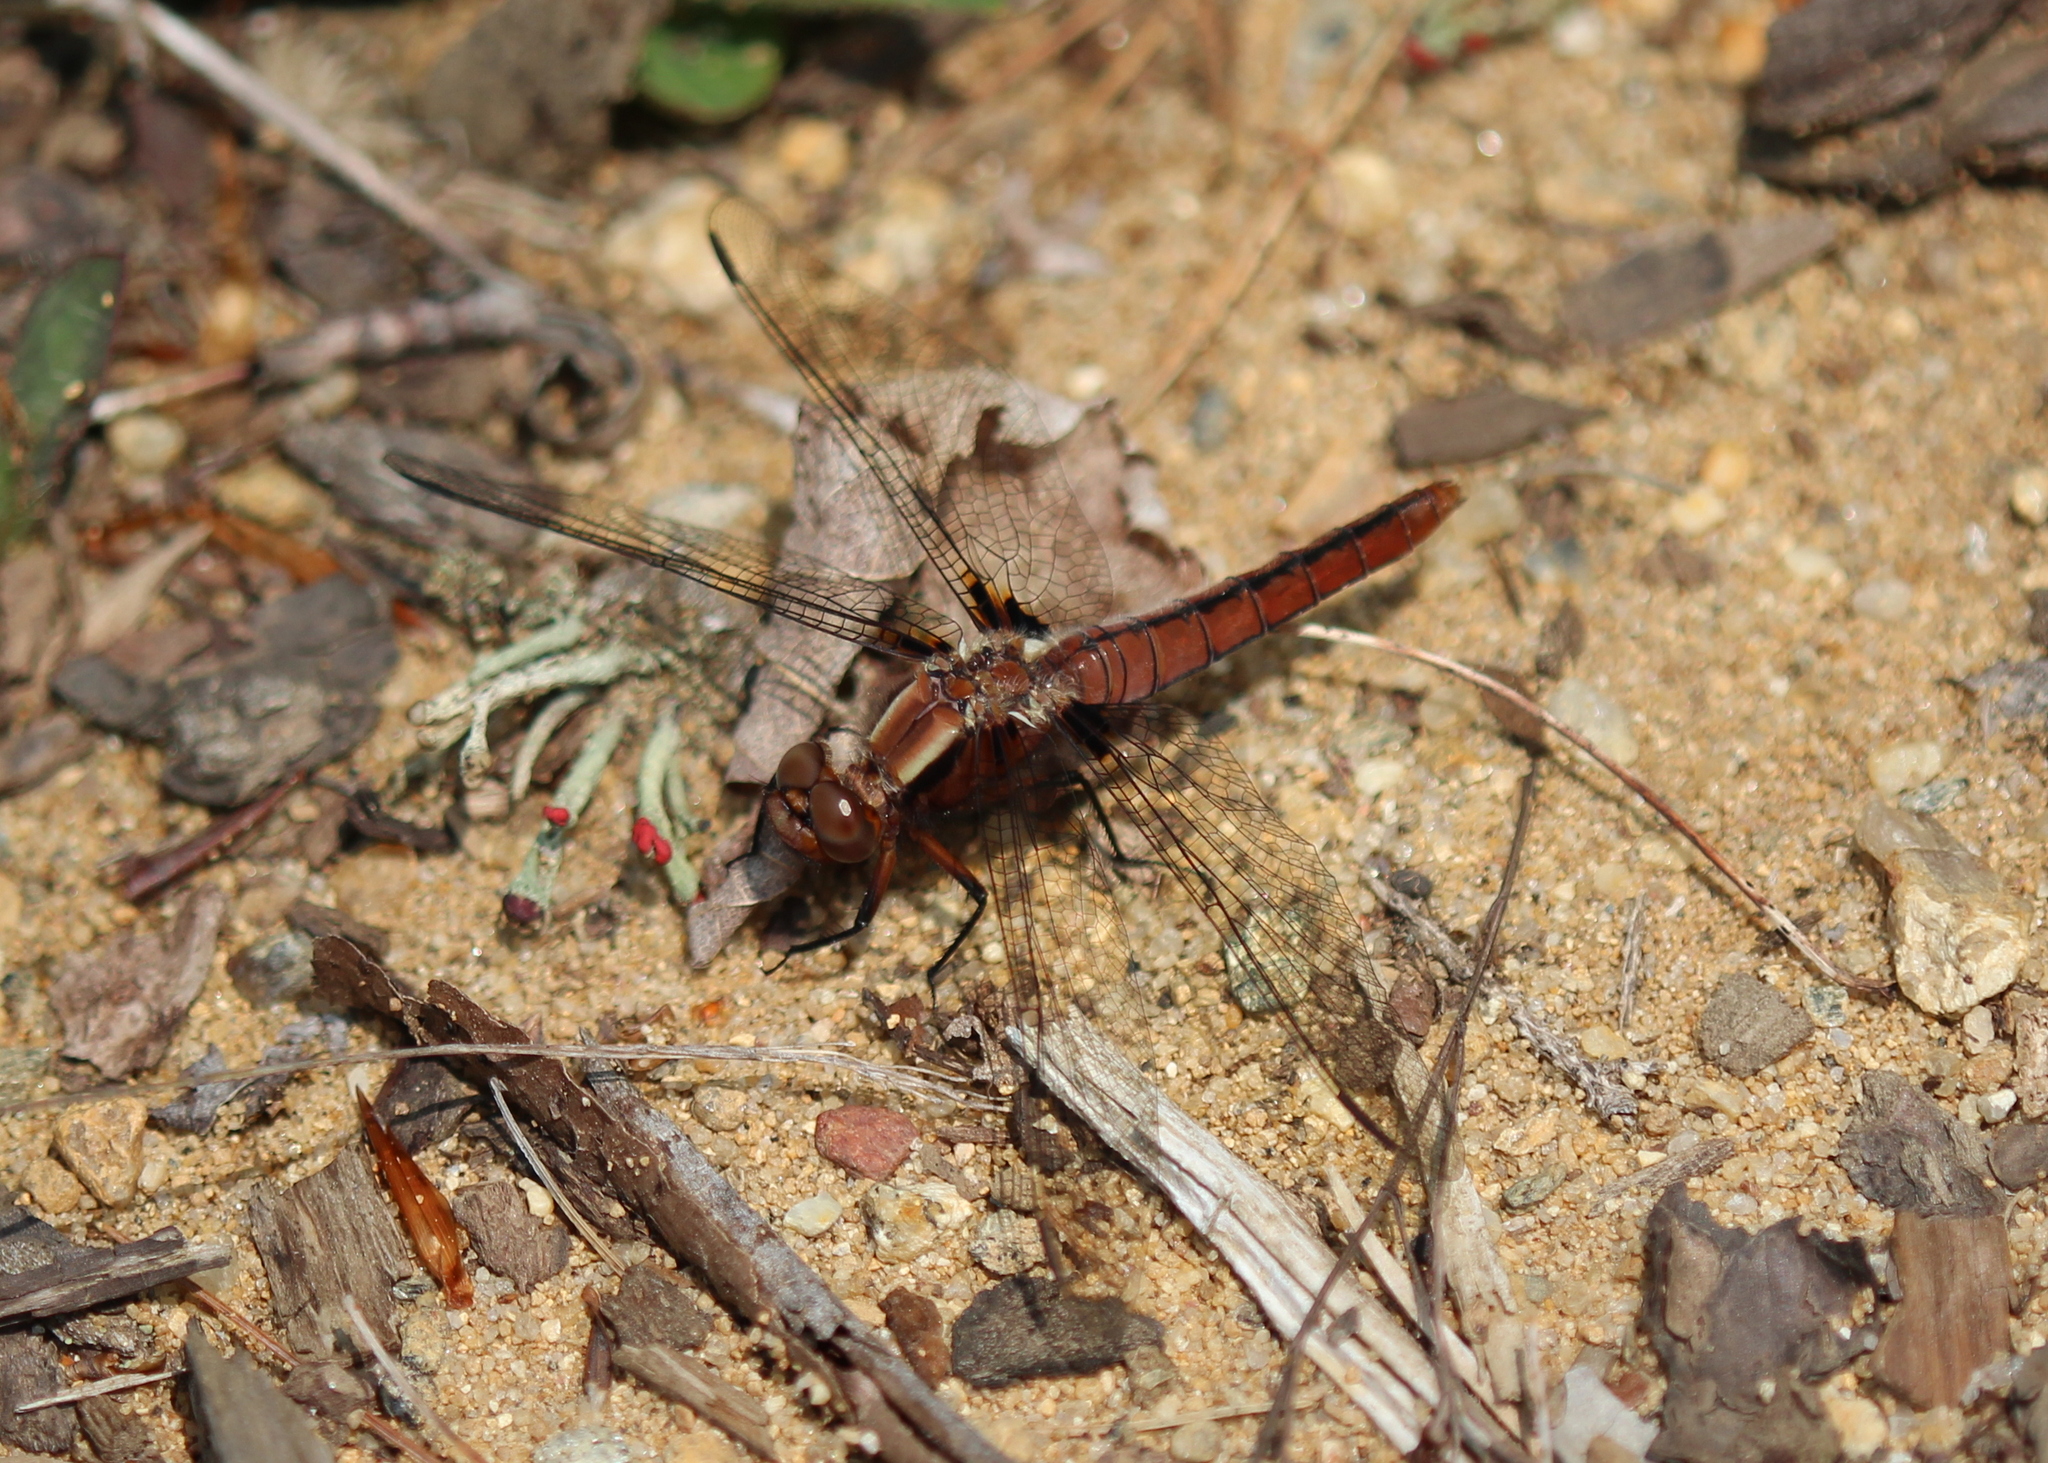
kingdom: Animalia
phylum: Arthropoda
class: Insecta
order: Odonata
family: Libellulidae
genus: Ladona
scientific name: Ladona julia
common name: Chalk-fronted corporal
